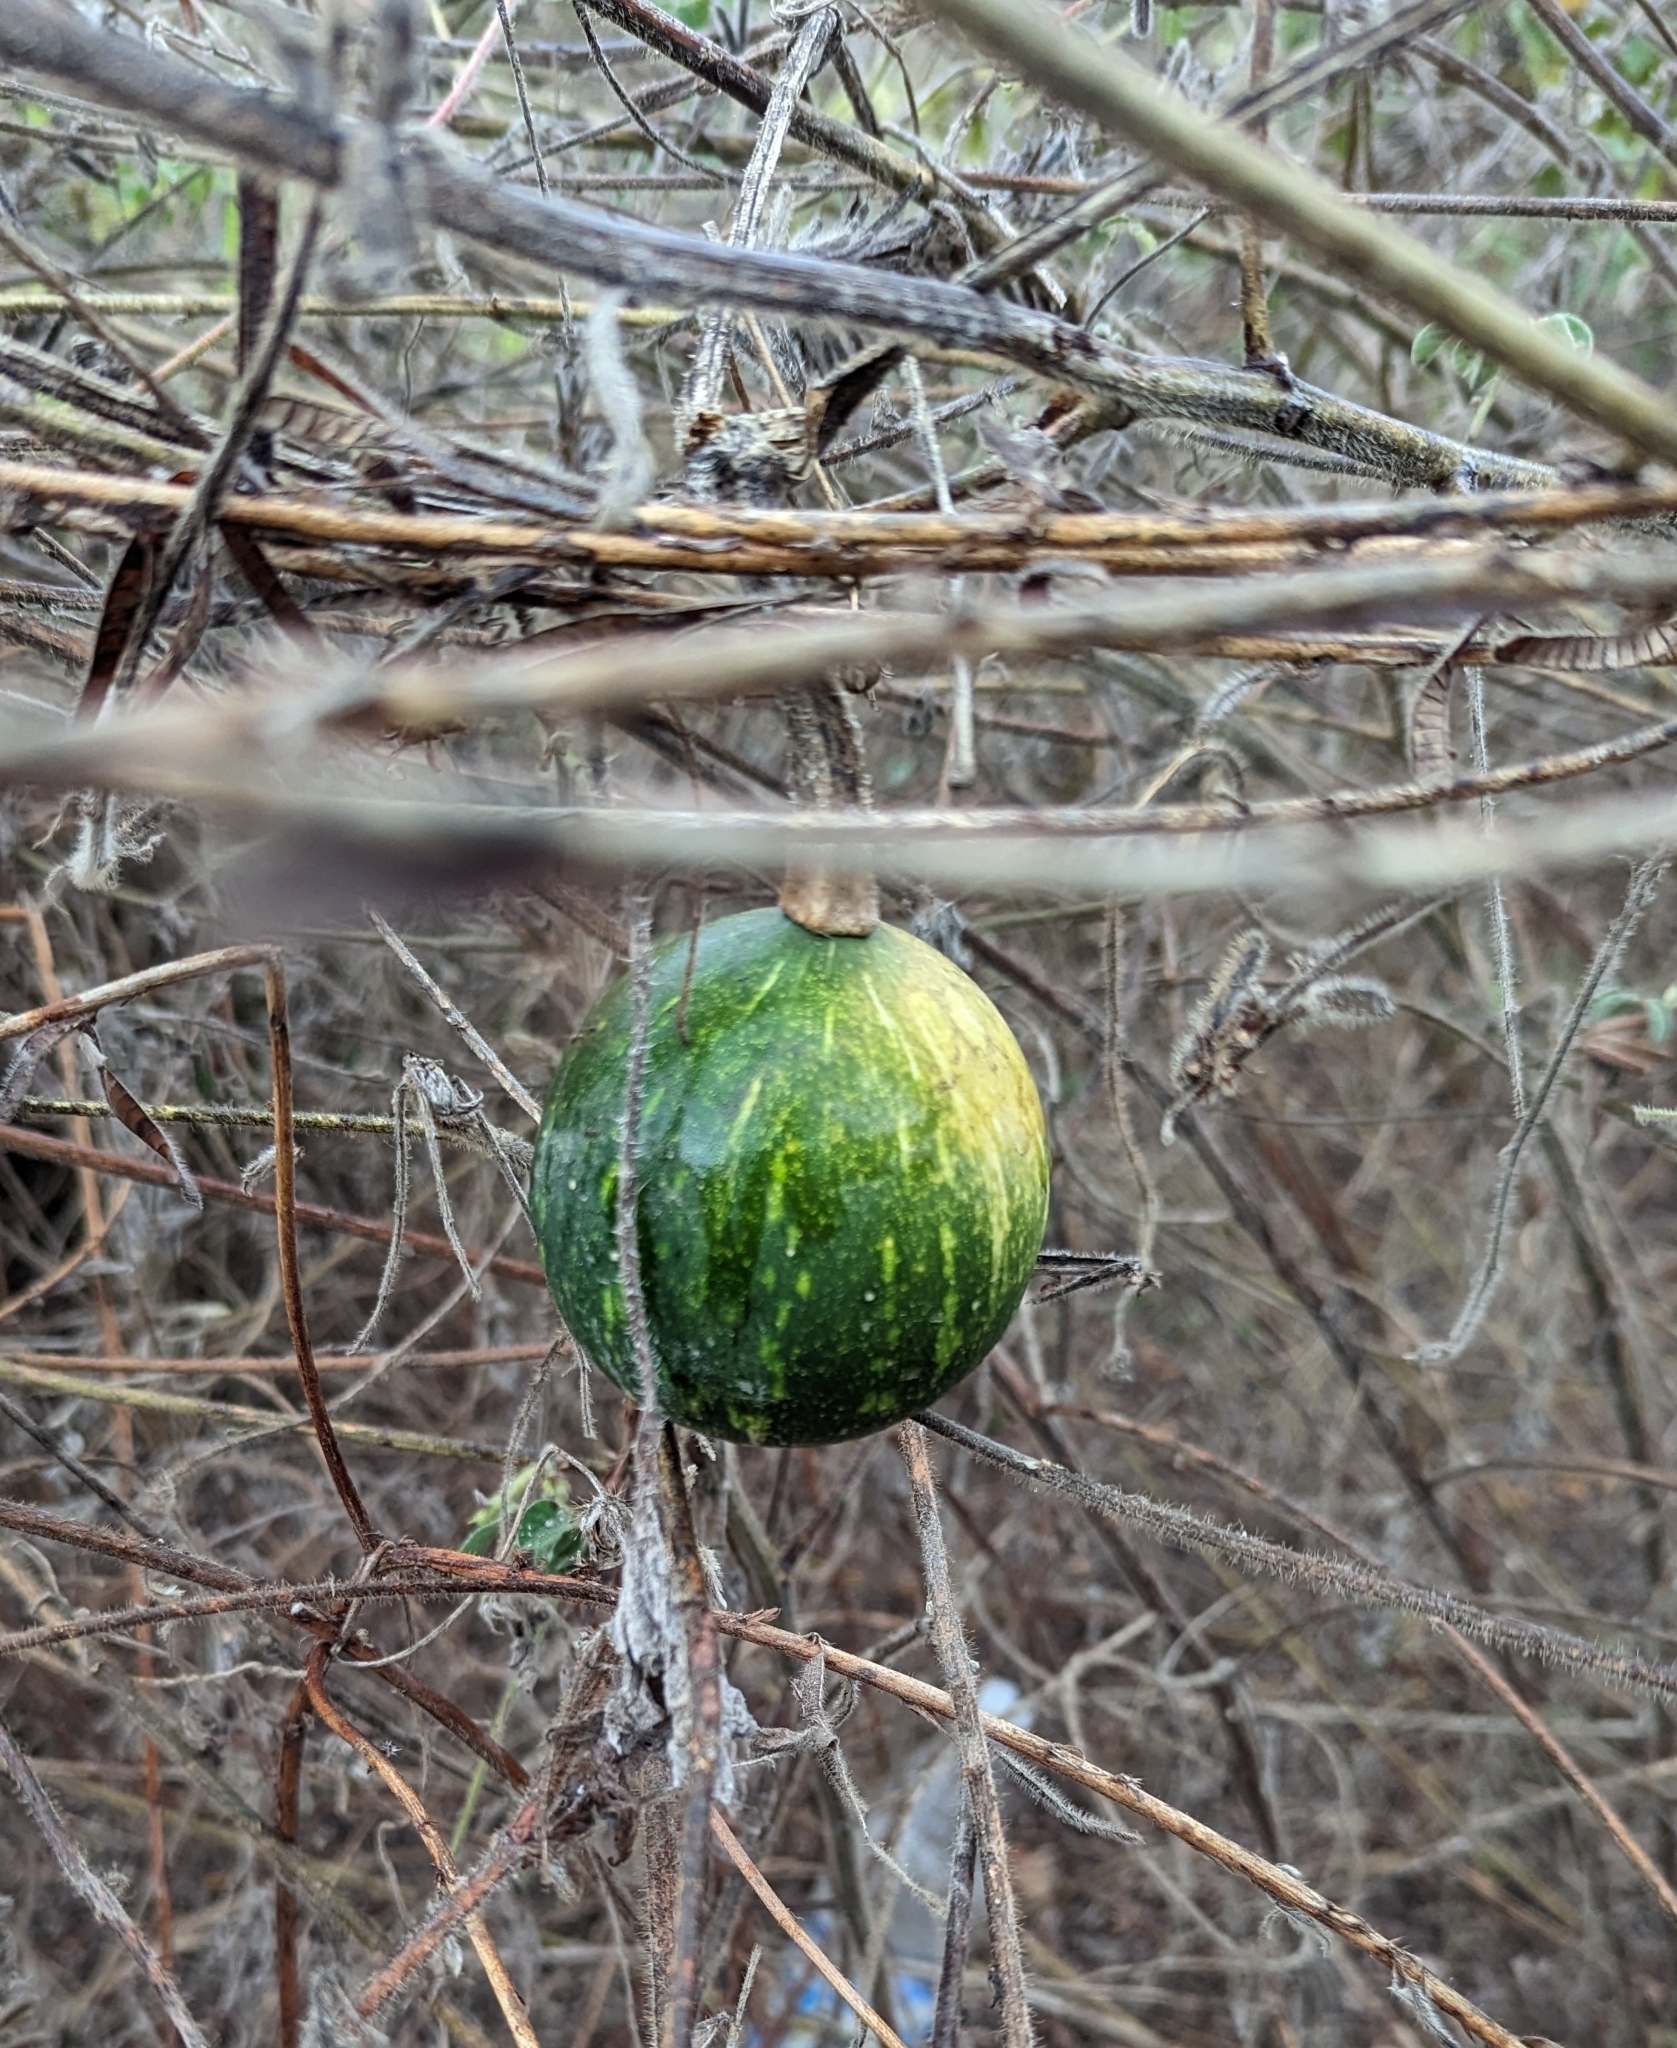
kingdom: Plantae
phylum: Tracheophyta
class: Magnoliopsida
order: Cucurbitales
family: Cucurbitaceae
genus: Cucurbita
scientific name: Cucurbita argyrosperma
